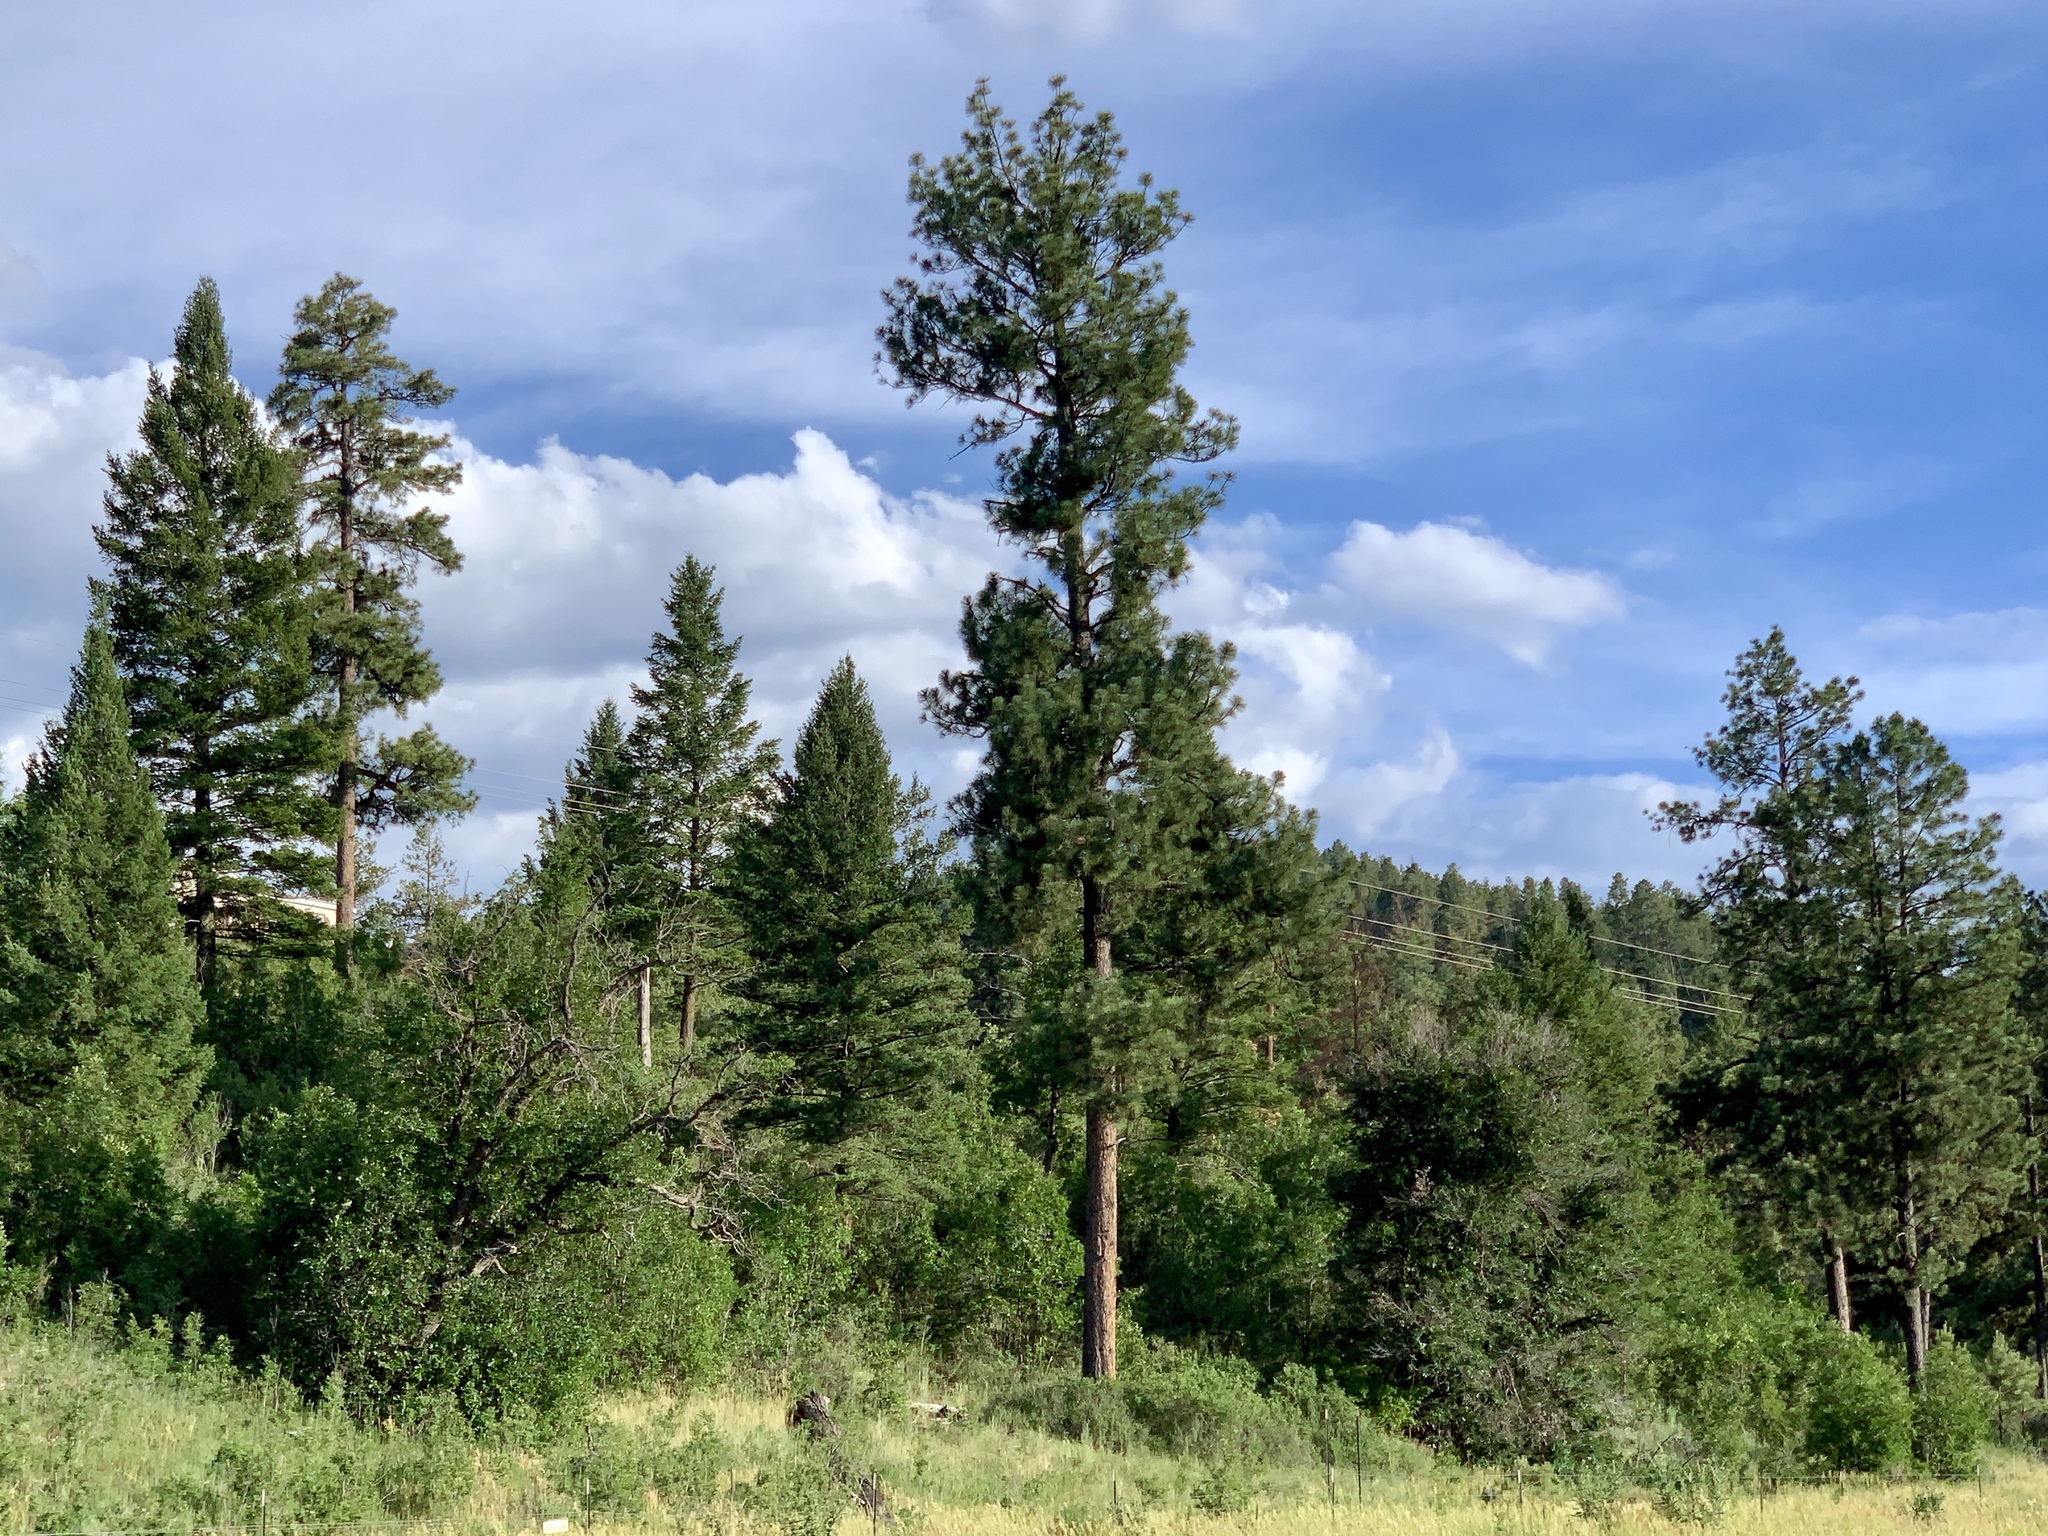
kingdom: Plantae
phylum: Tracheophyta
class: Pinopsida
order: Pinales
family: Pinaceae
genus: Pinus
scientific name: Pinus ponderosa
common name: Western yellow-pine
